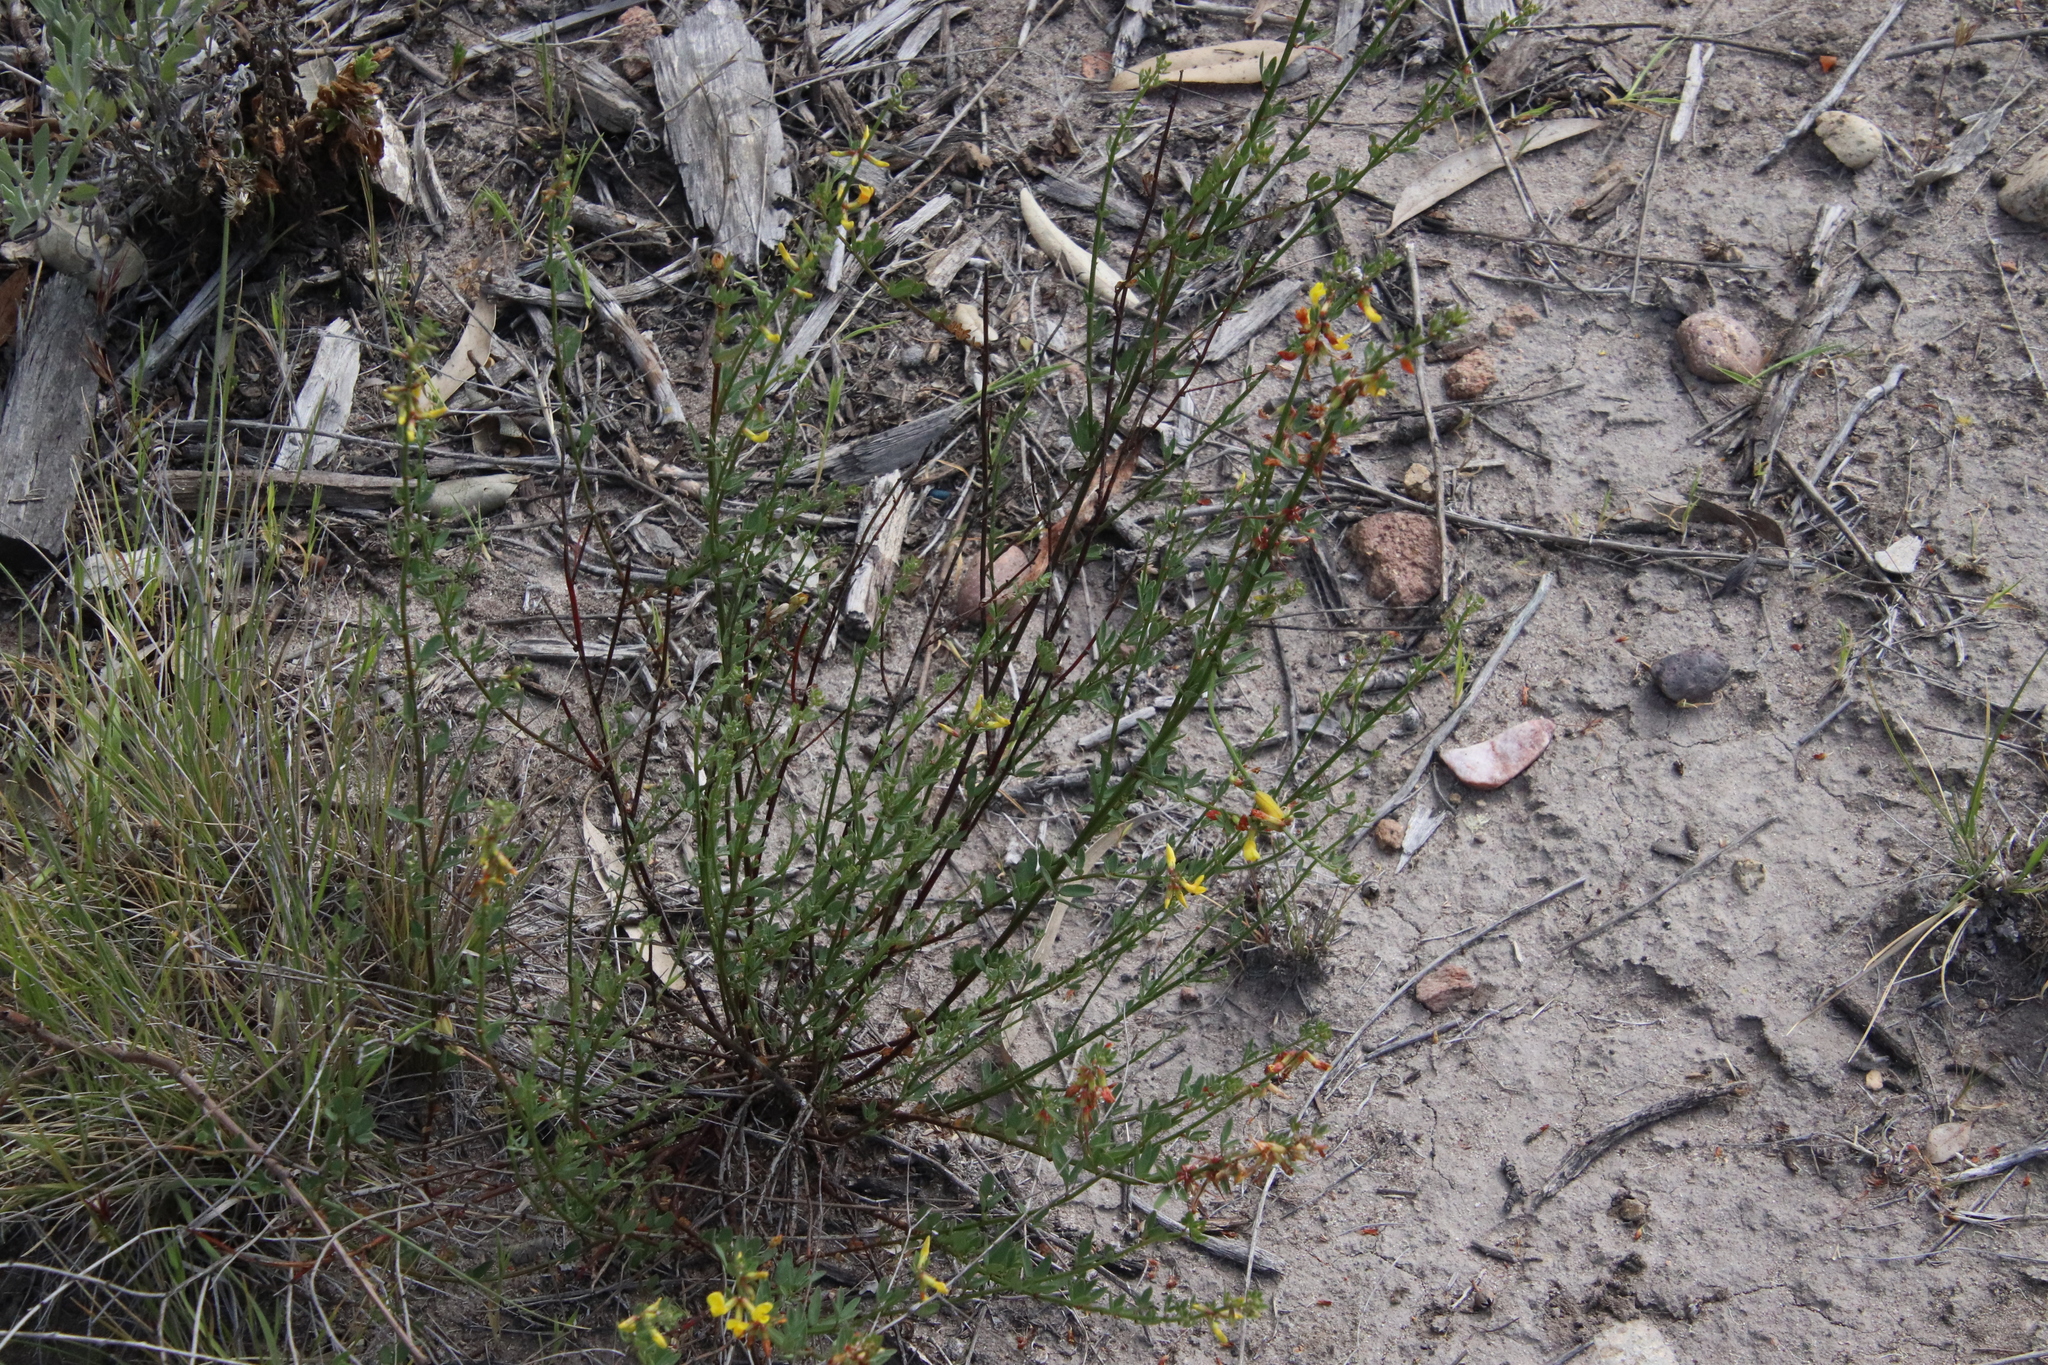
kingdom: Plantae
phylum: Tracheophyta
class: Magnoliopsida
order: Fabales
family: Fabaceae
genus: Acmispon
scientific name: Acmispon glaber
